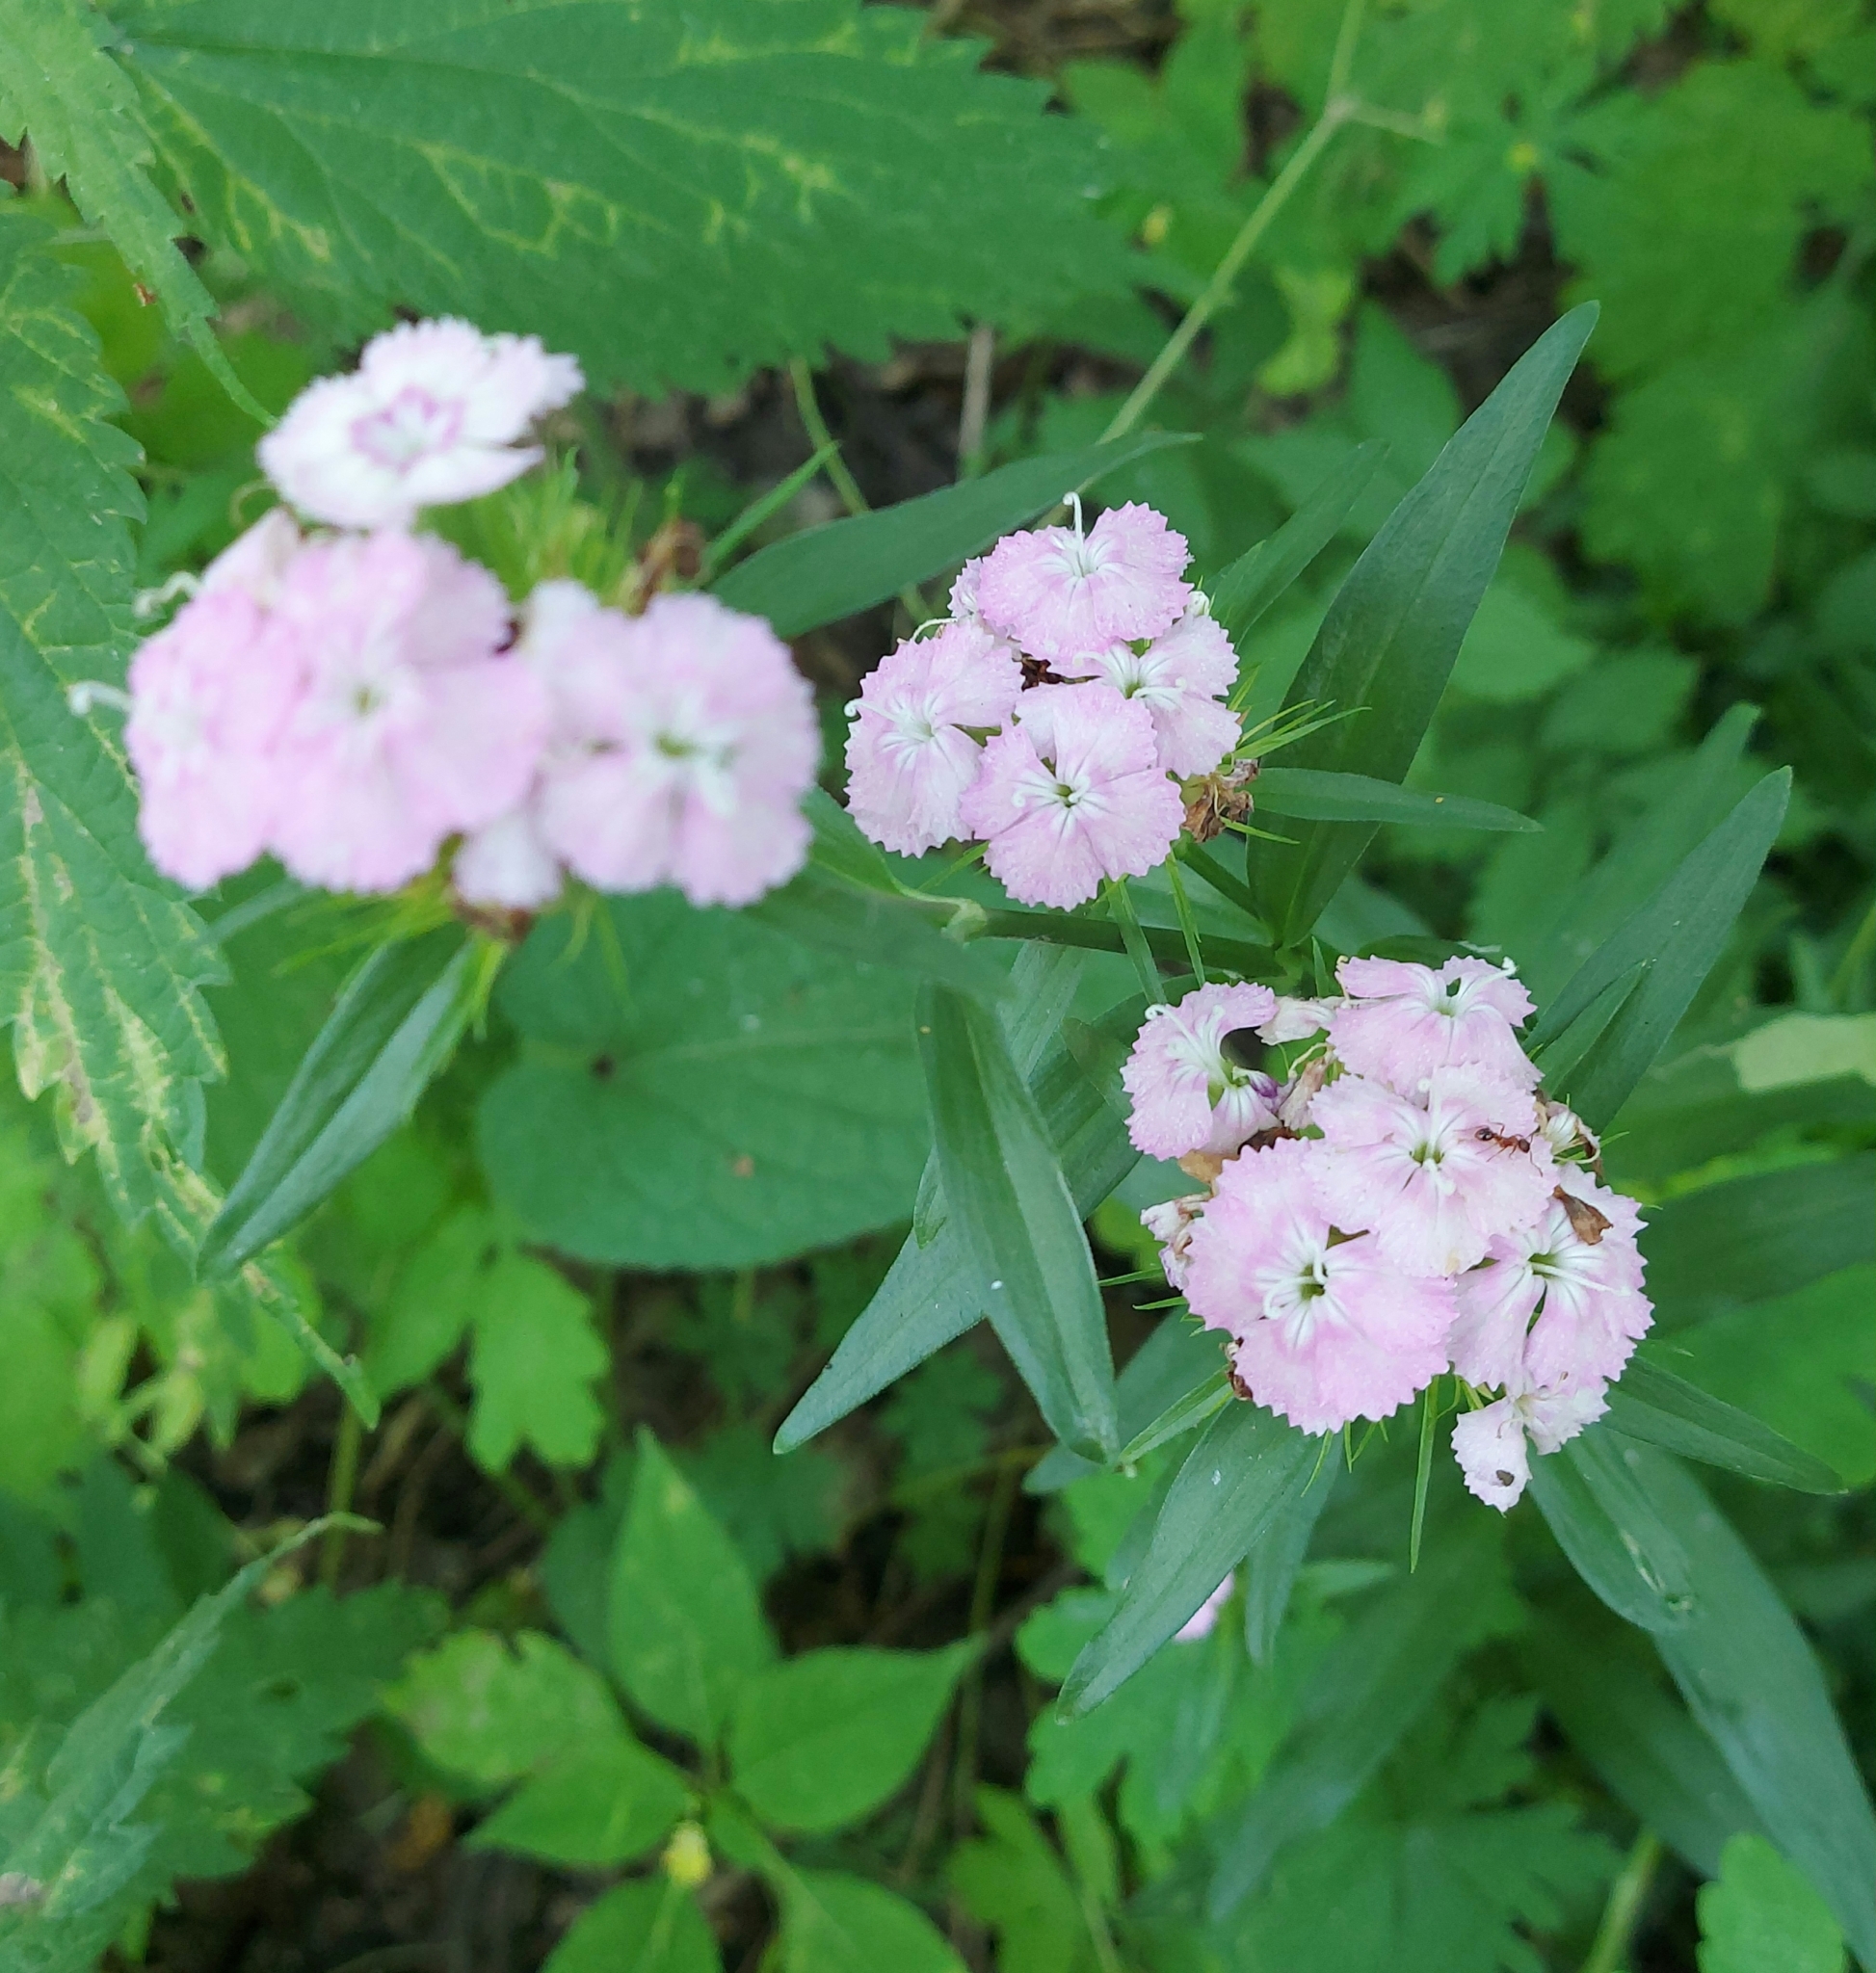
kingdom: Plantae
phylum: Tracheophyta
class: Magnoliopsida
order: Caryophyllales
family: Caryophyllaceae
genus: Dianthus
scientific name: Dianthus barbatus
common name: Sweet-william
